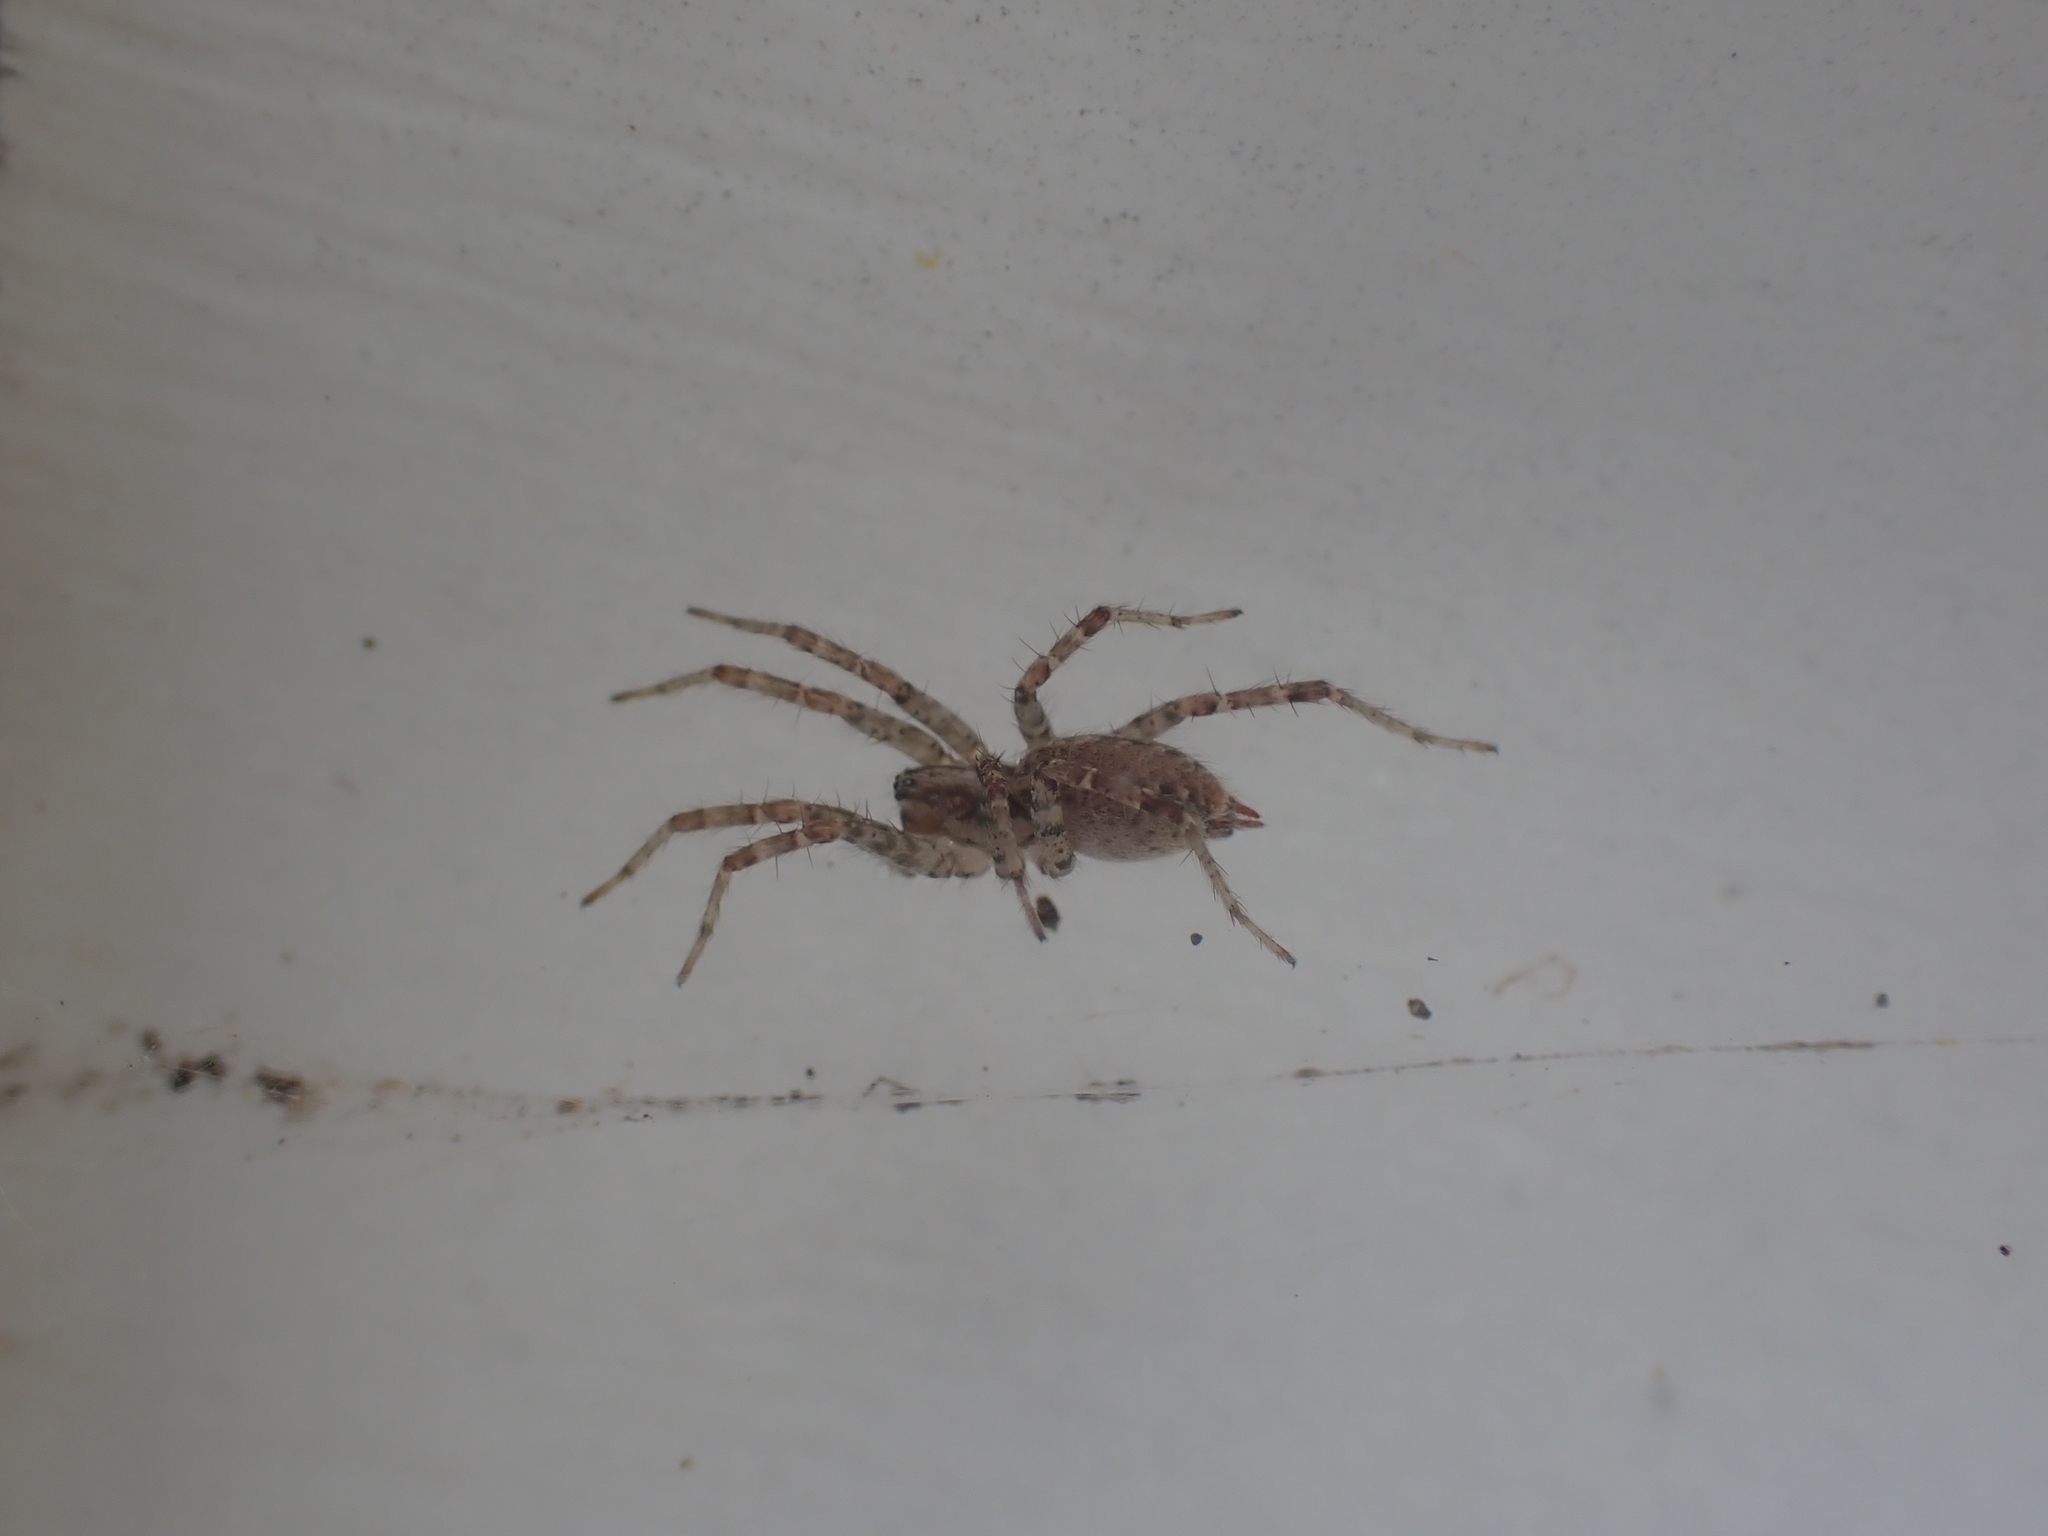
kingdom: Animalia
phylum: Arthropoda
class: Arachnida
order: Araneae
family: Agelenidae
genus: Barronopsis
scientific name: Barronopsis texana
